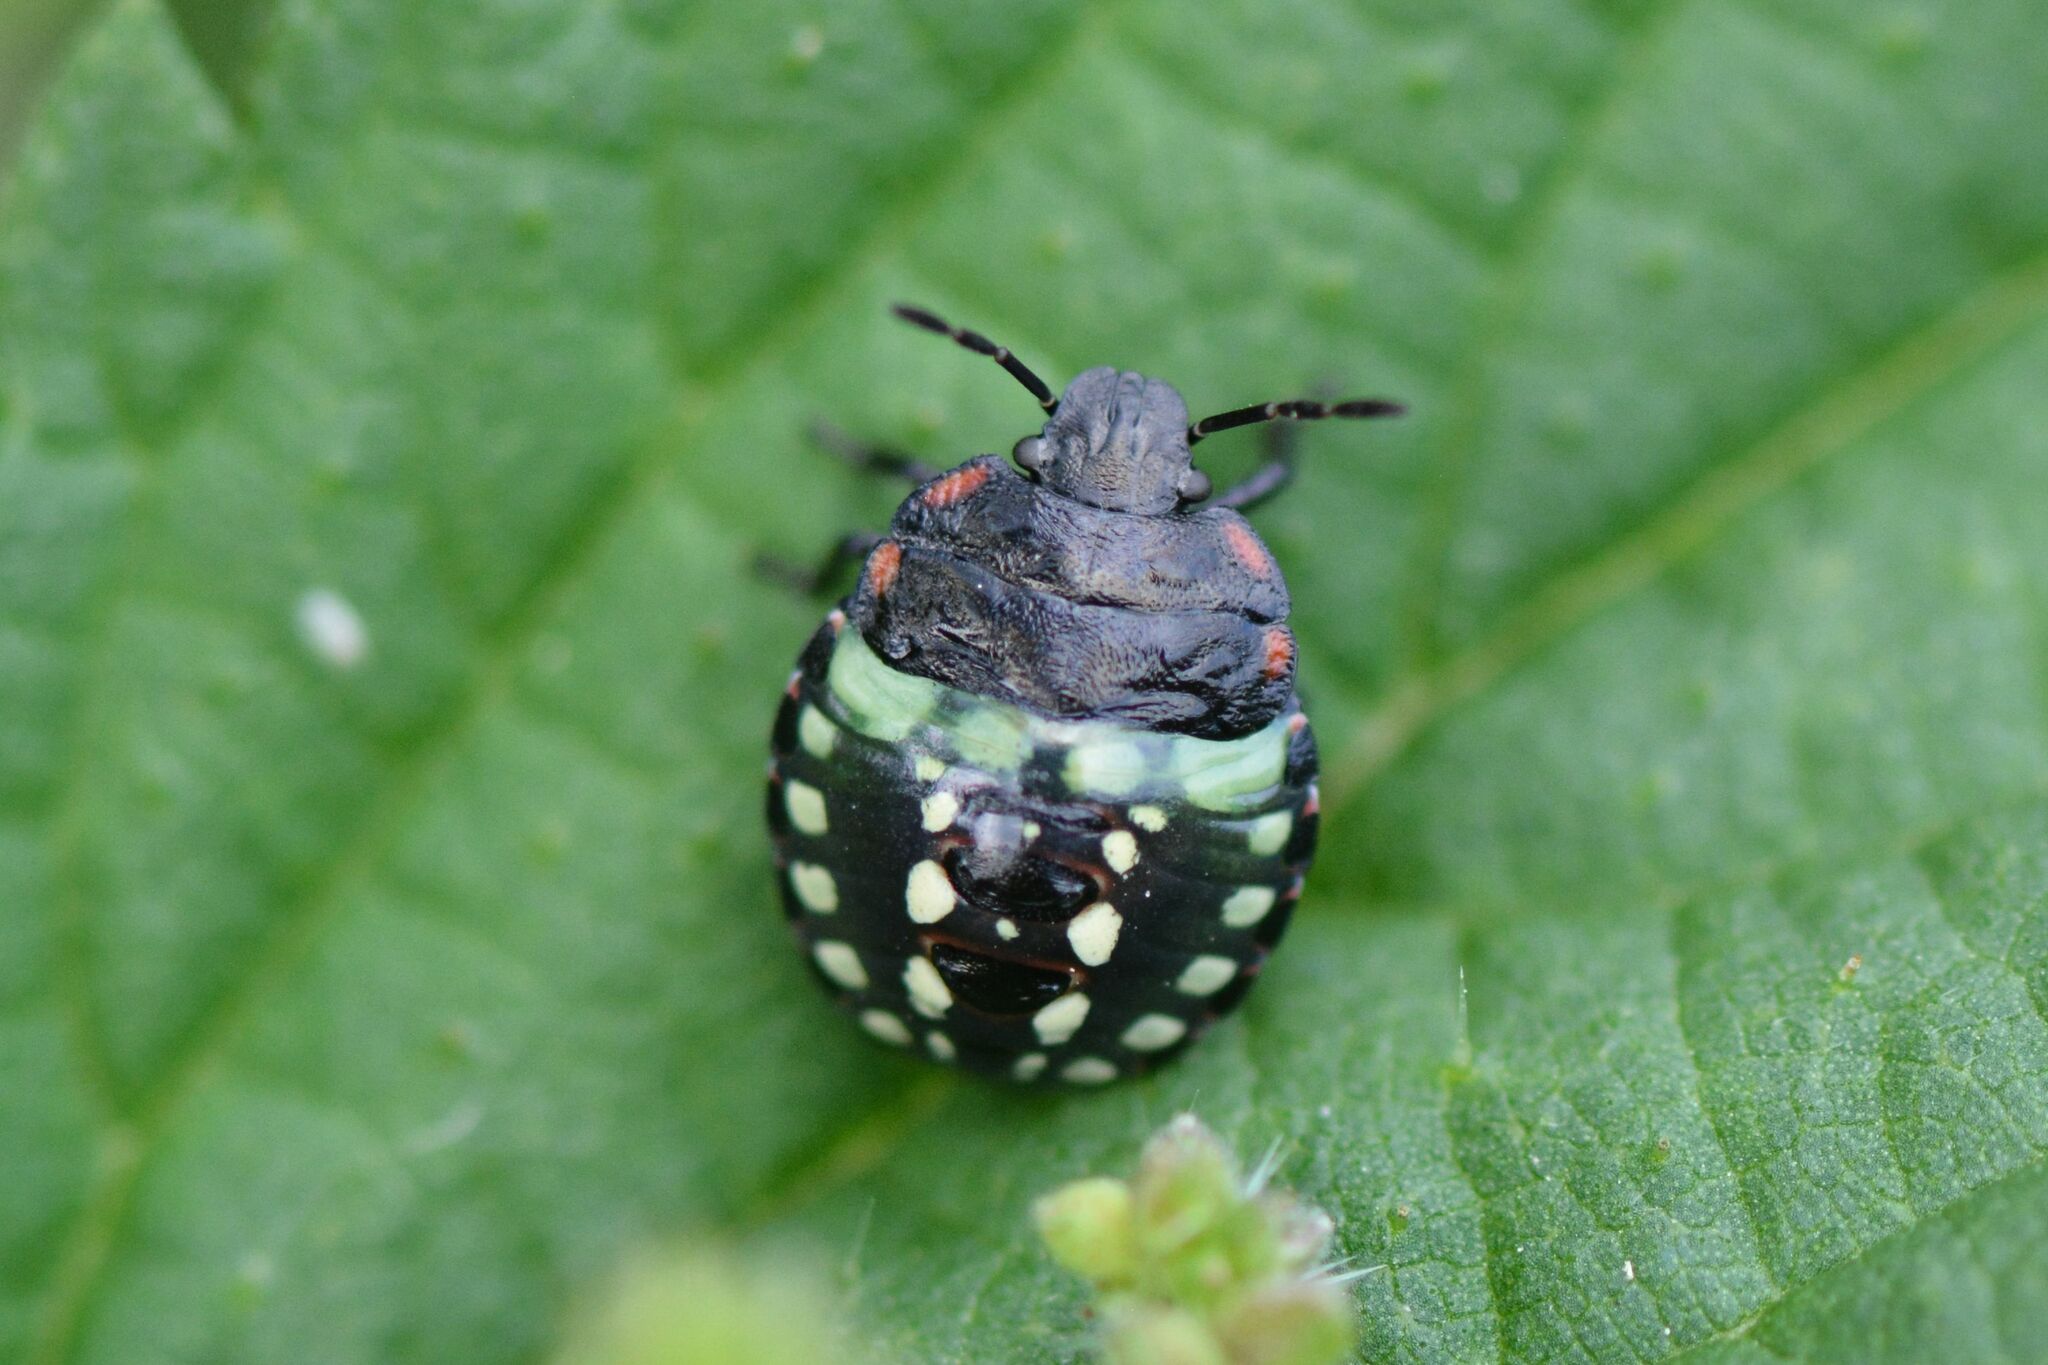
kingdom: Animalia
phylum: Arthropoda
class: Insecta
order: Hemiptera
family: Pentatomidae
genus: Nezara
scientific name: Nezara viridula
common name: Southern green stink bug
